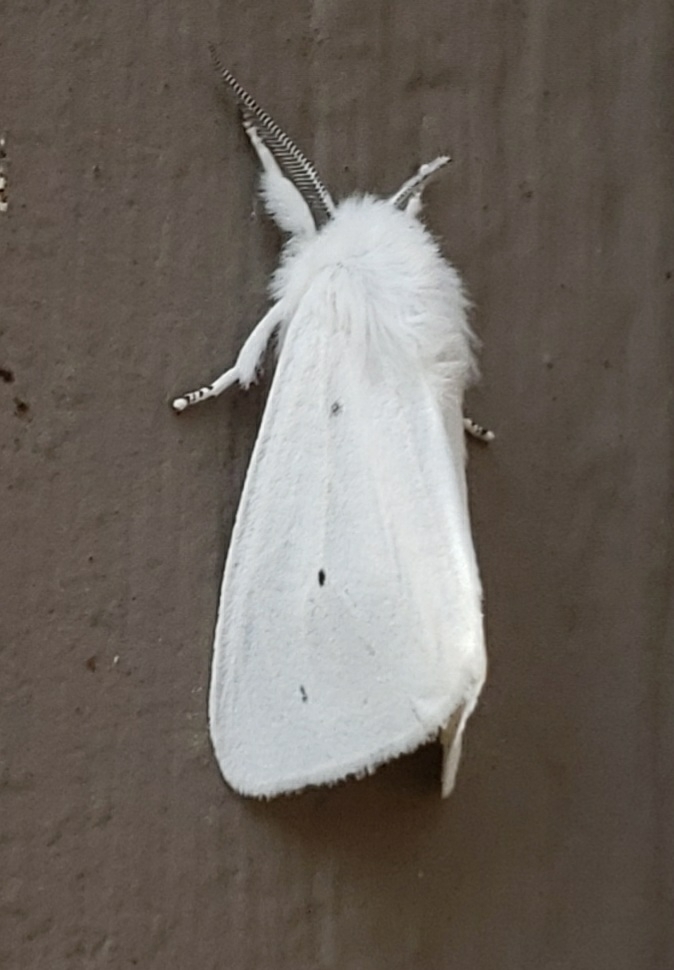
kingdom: Animalia
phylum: Arthropoda
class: Insecta
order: Lepidoptera
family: Erebidae
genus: Spilosoma
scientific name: Spilosoma virginica
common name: Virginia tiger moth
